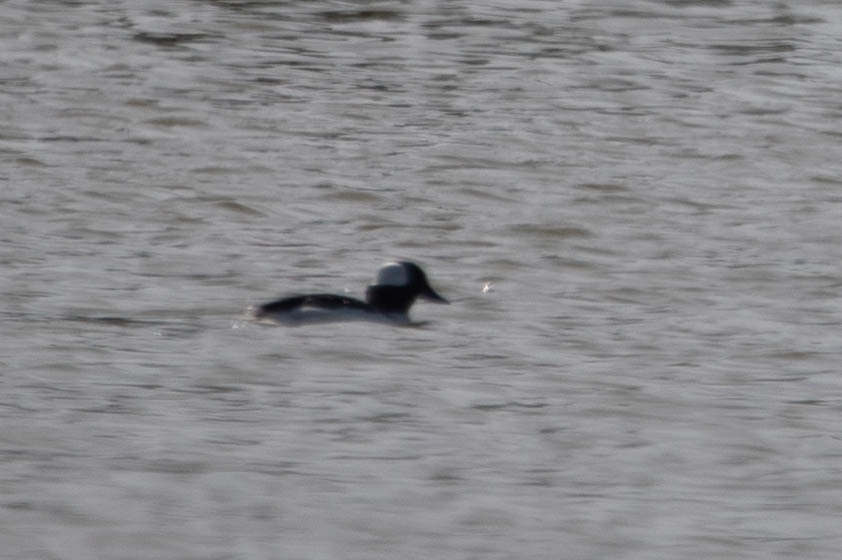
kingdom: Animalia
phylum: Chordata
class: Aves
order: Anseriformes
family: Anatidae
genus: Bucephala
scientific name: Bucephala albeola
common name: Bufflehead
